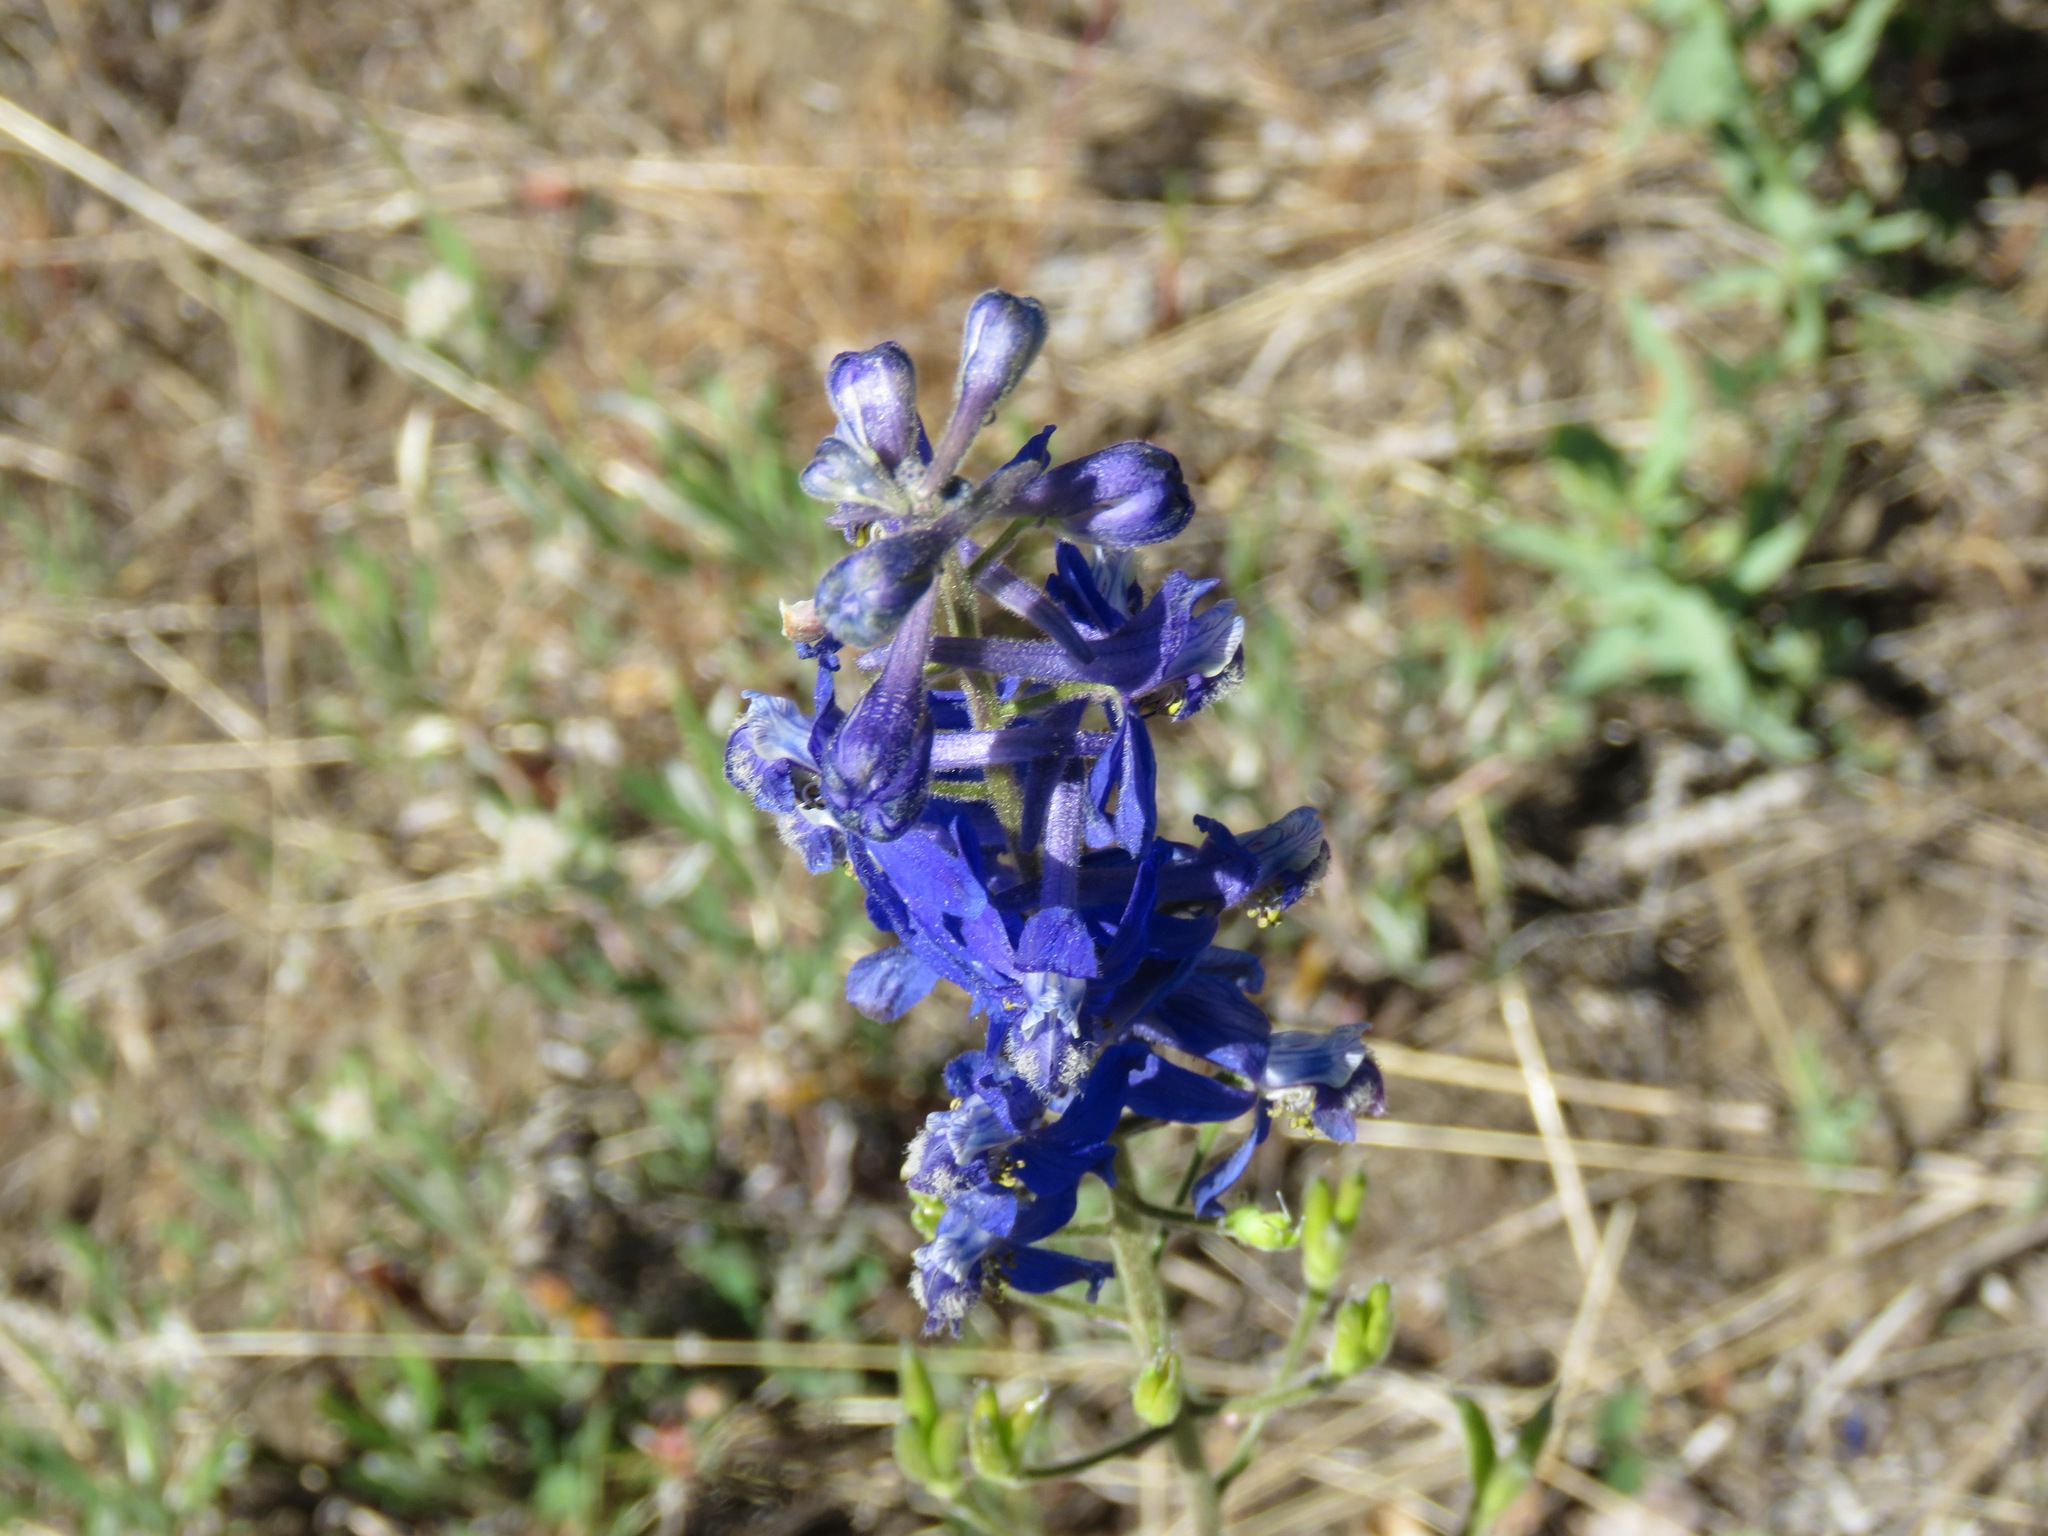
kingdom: Plantae
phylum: Tracheophyta
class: Magnoliopsida
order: Ranunculales
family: Ranunculaceae
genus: Delphinium
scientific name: Delphinium nuttallianum
